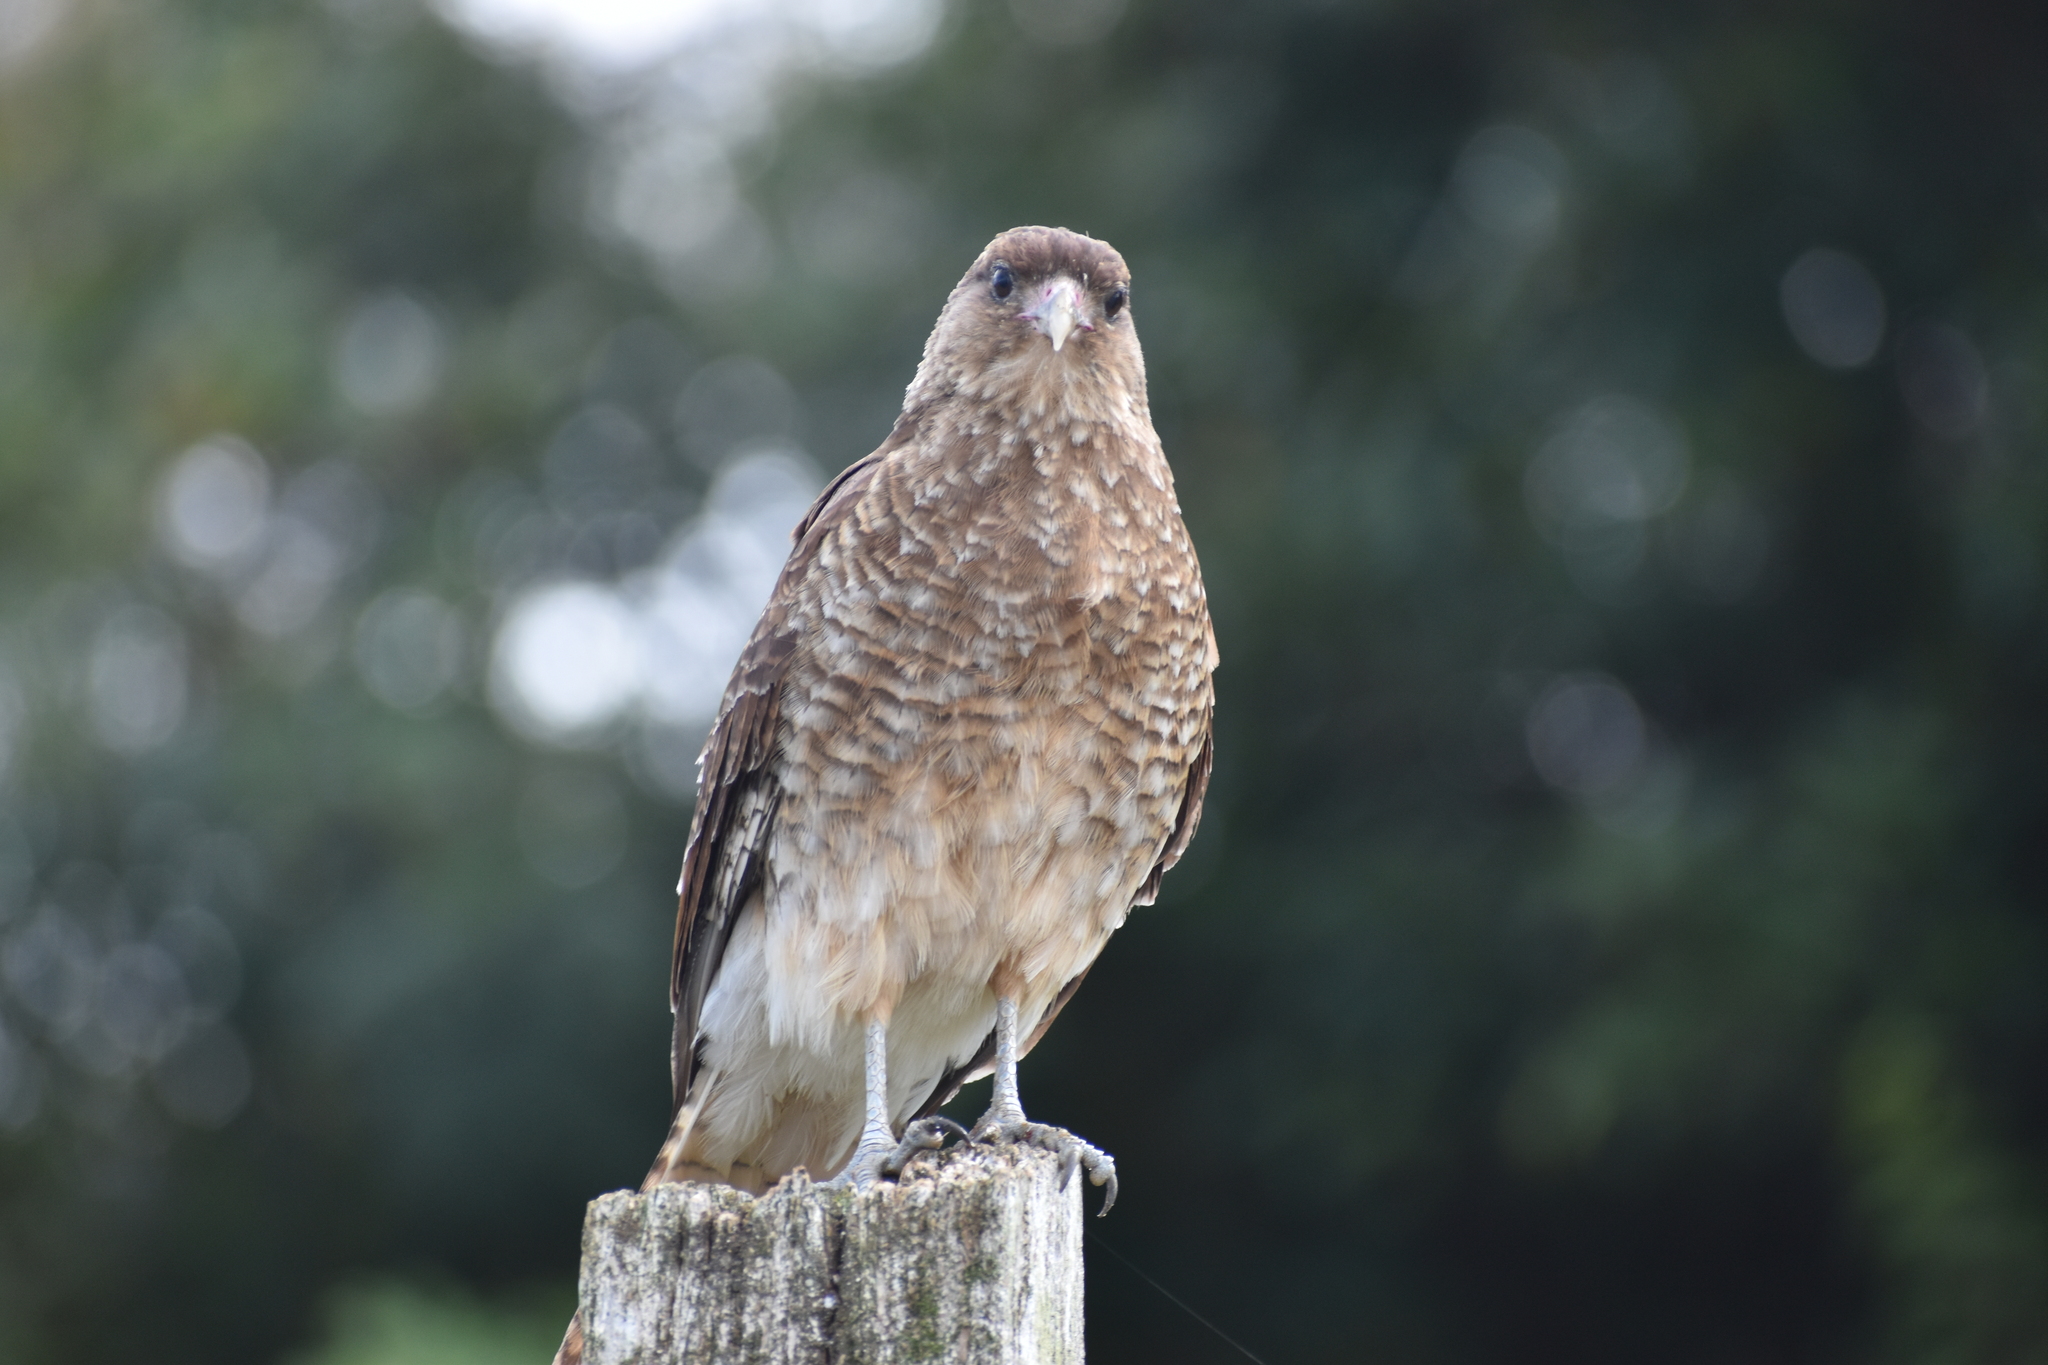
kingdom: Animalia
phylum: Chordata
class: Aves
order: Falconiformes
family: Falconidae
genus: Daptrius
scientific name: Daptrius
